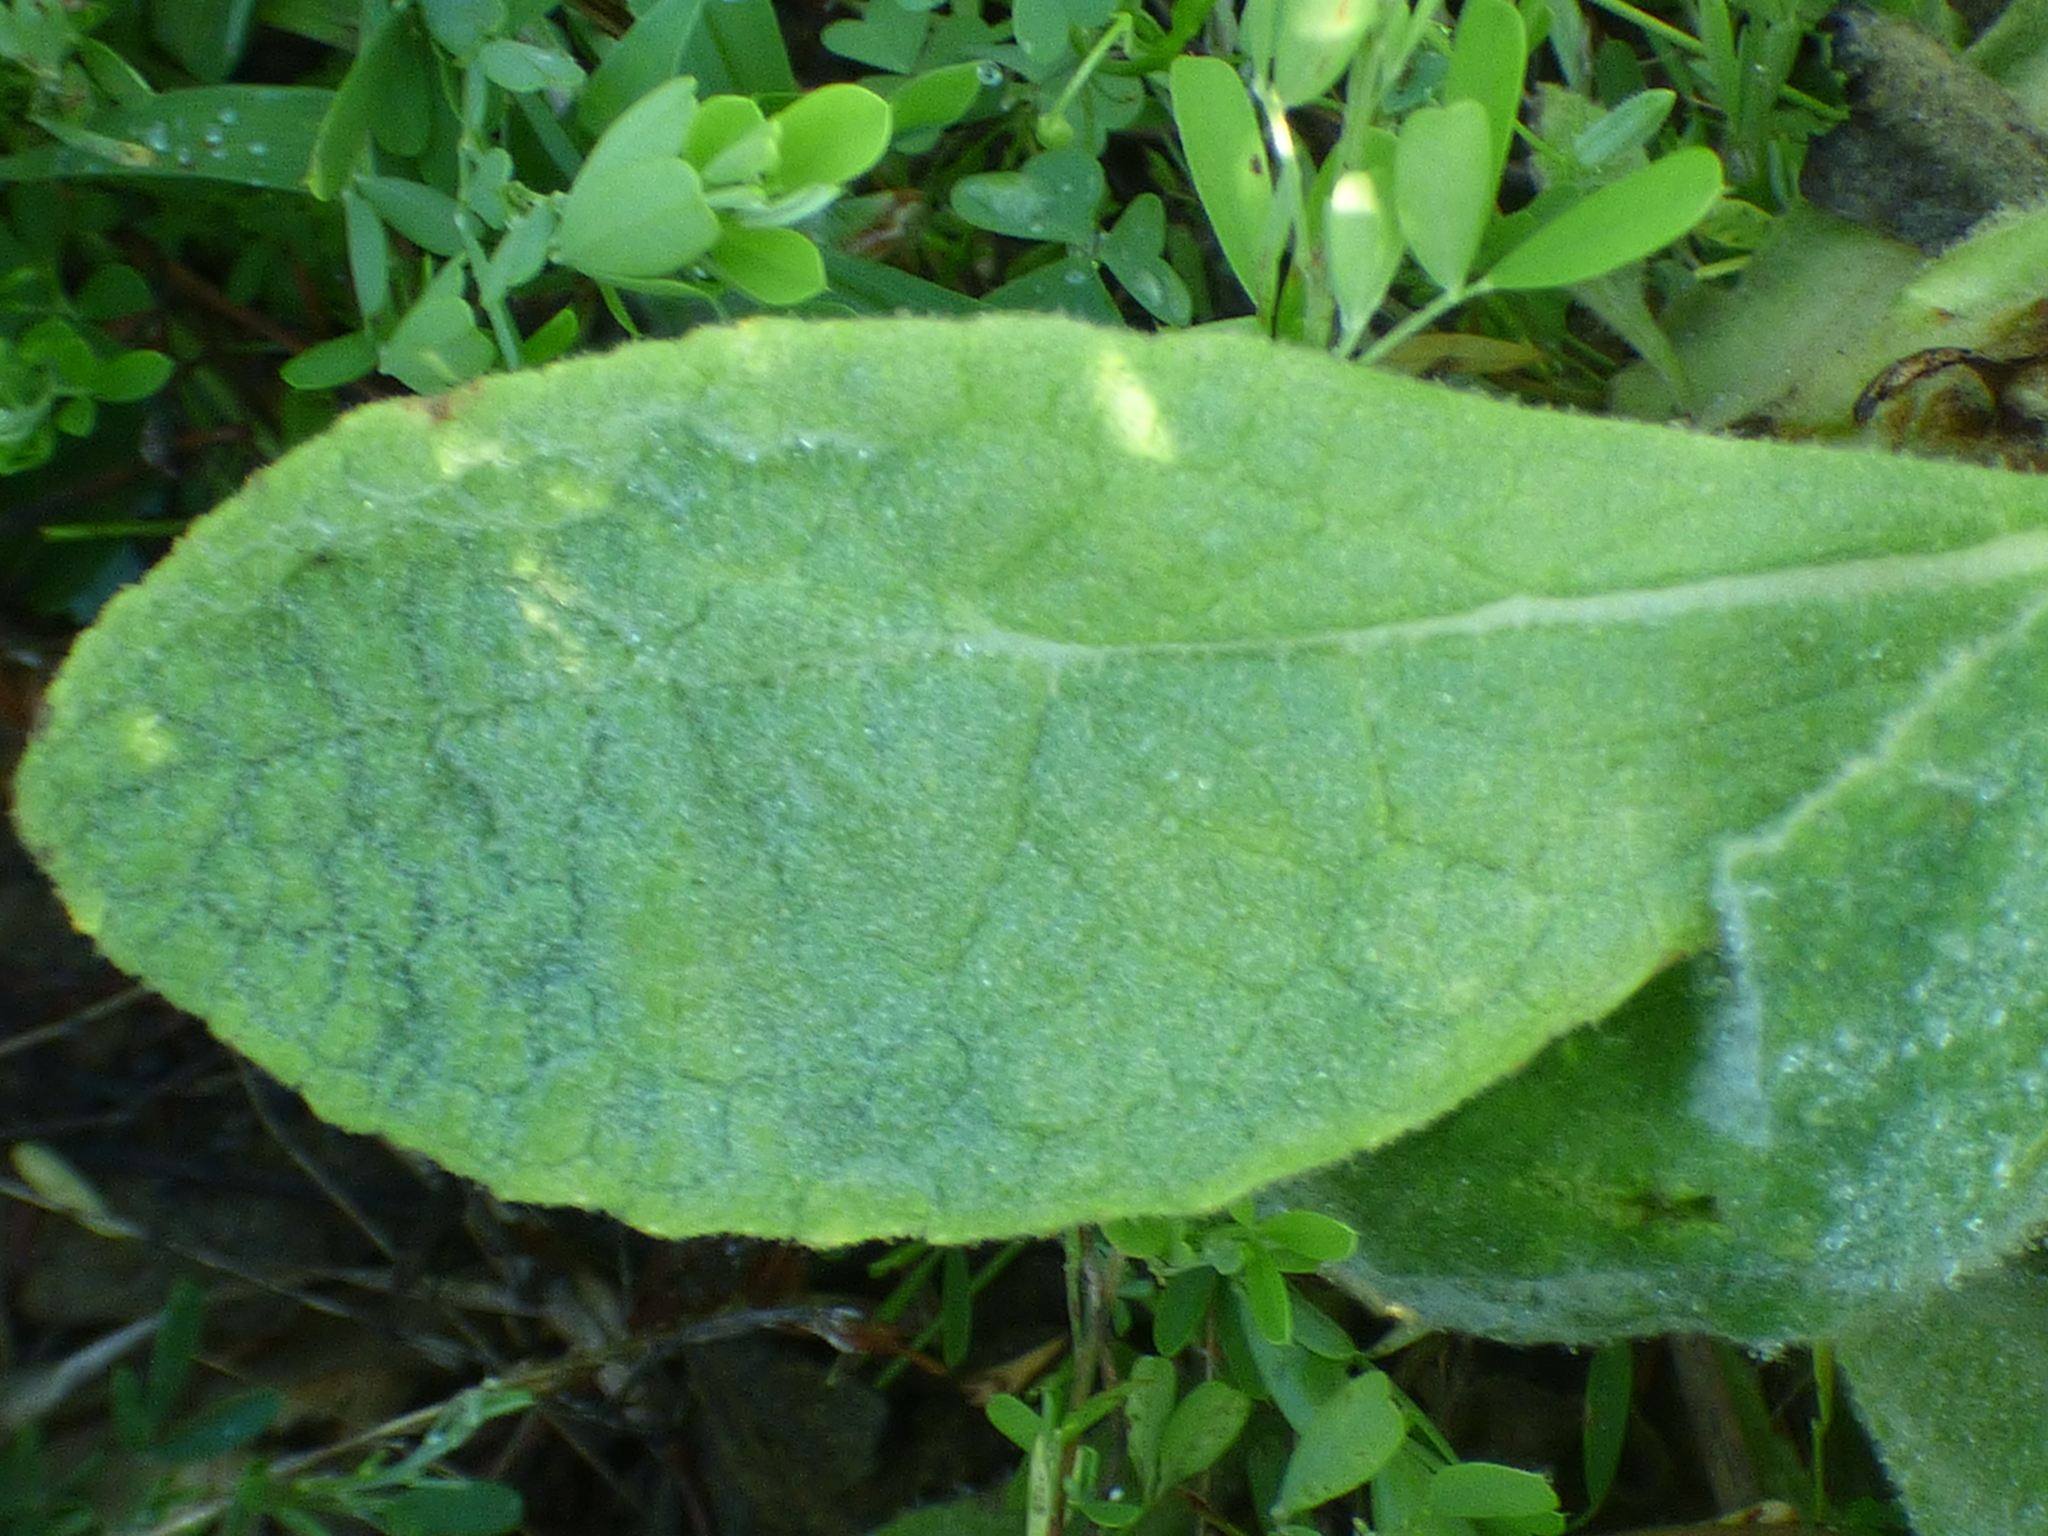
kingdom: Plantae
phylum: Tracheophyta
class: Magnoliopsida
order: Lamiales
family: Scrophulariaceae
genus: Verbascum
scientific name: Verbascum thapsus
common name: Common mullein
